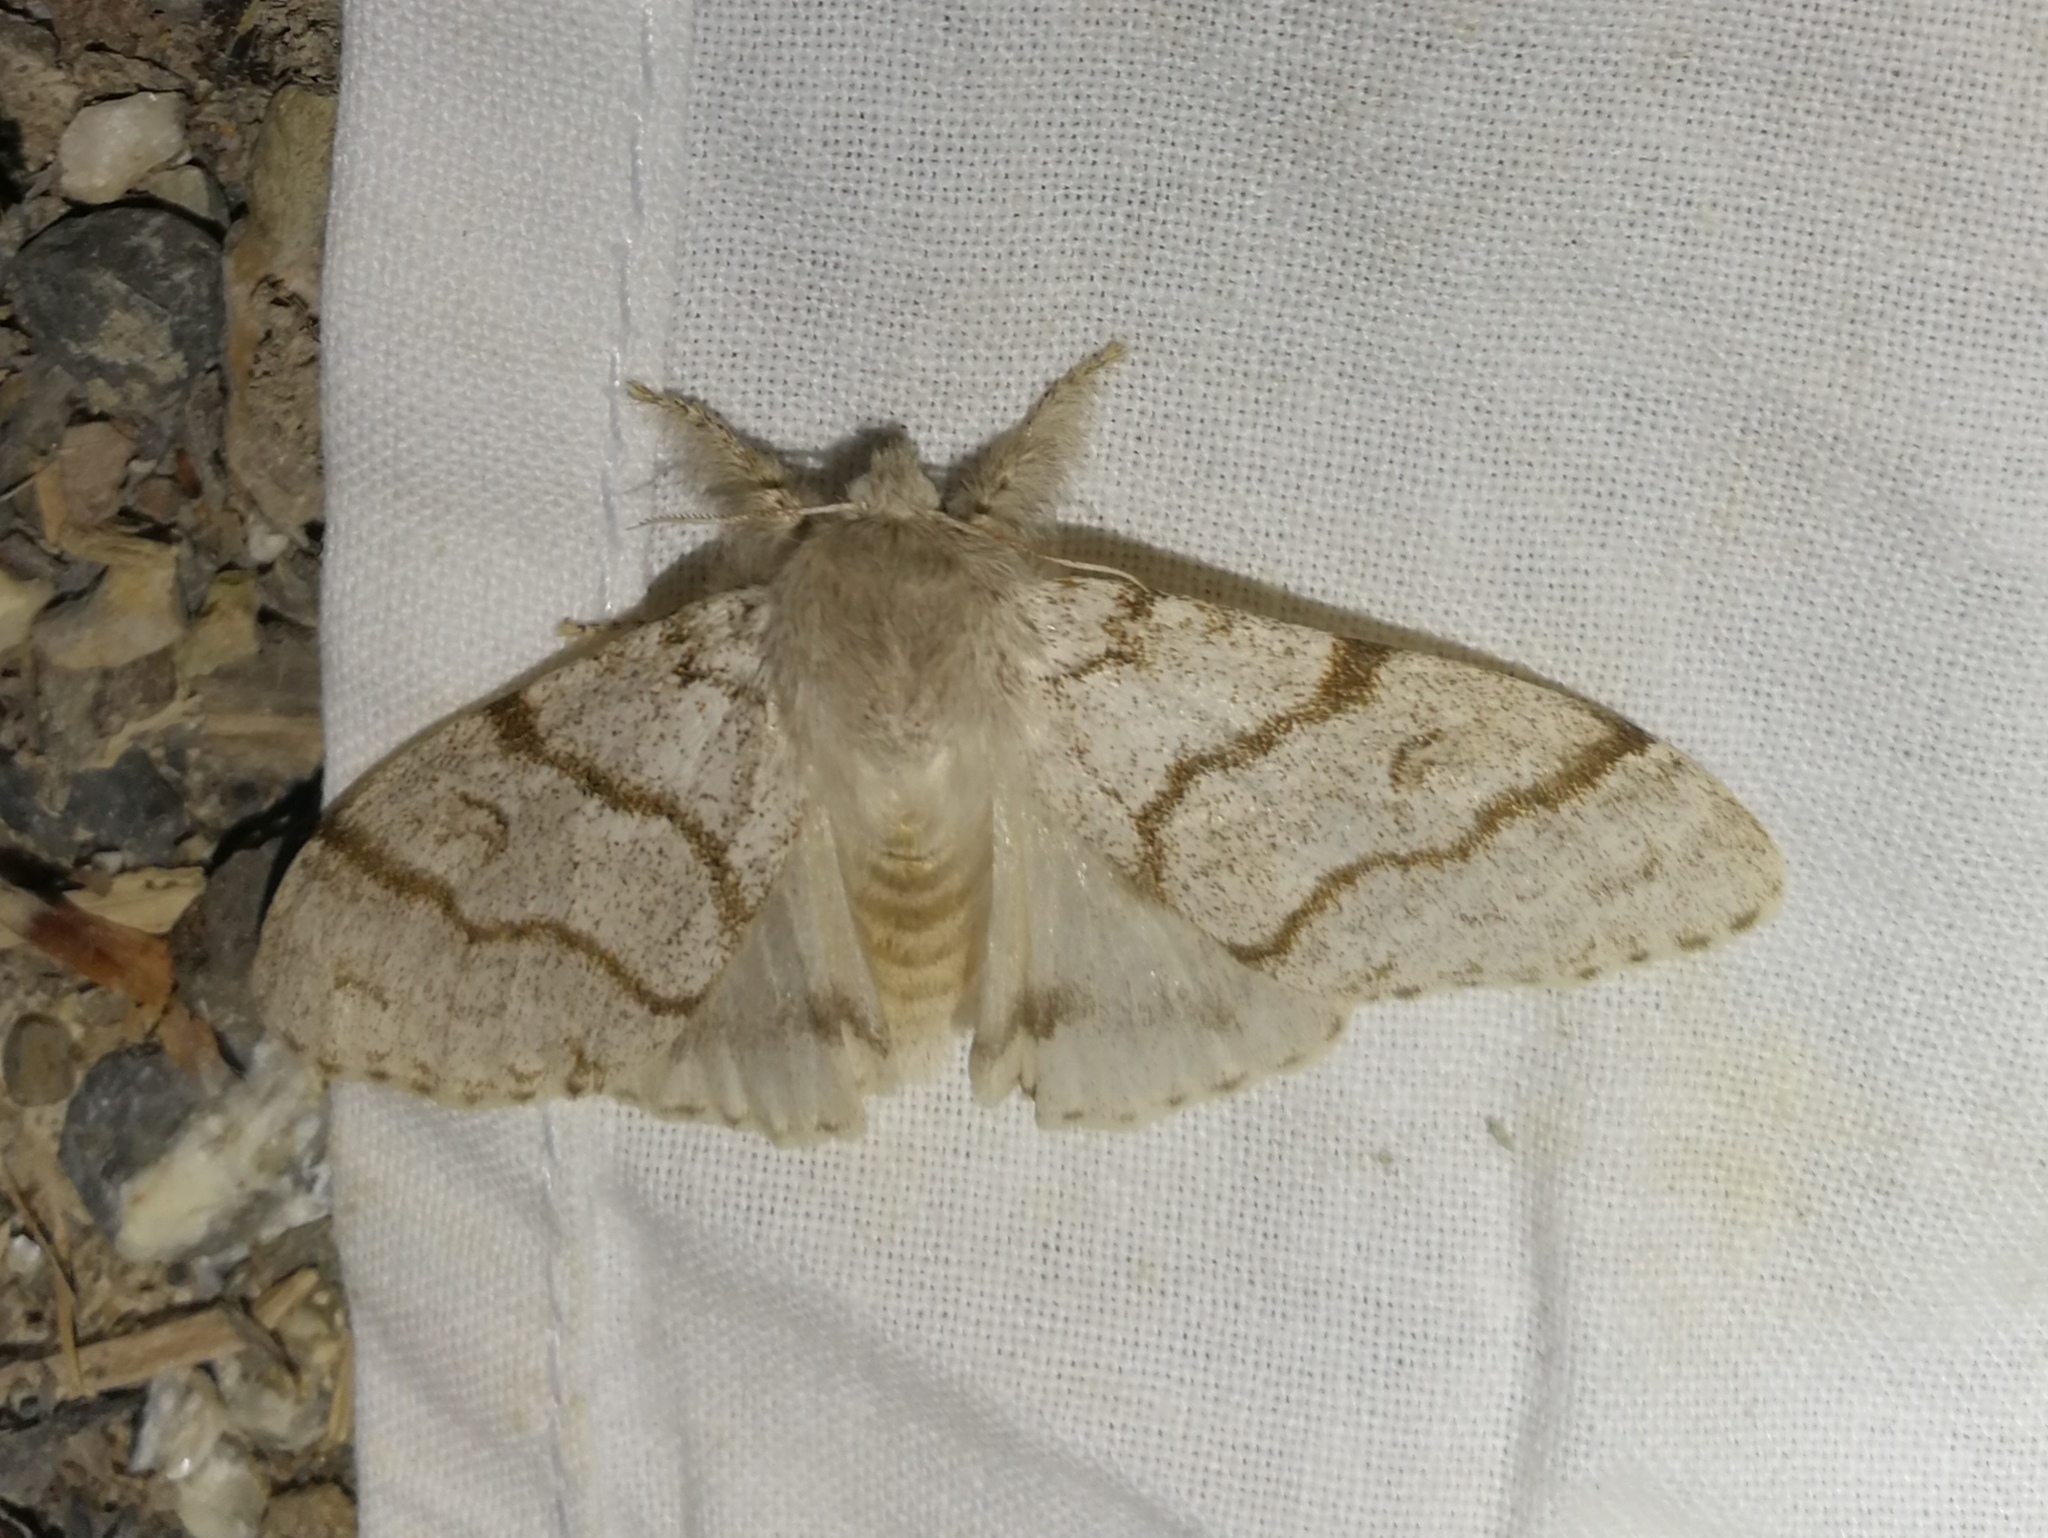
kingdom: Animalia
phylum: Arthropoda
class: Insecta
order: Lepidoptera
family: Erebidae
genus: Calliteara
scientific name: Calliteara pudibunda
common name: Pale tussock
